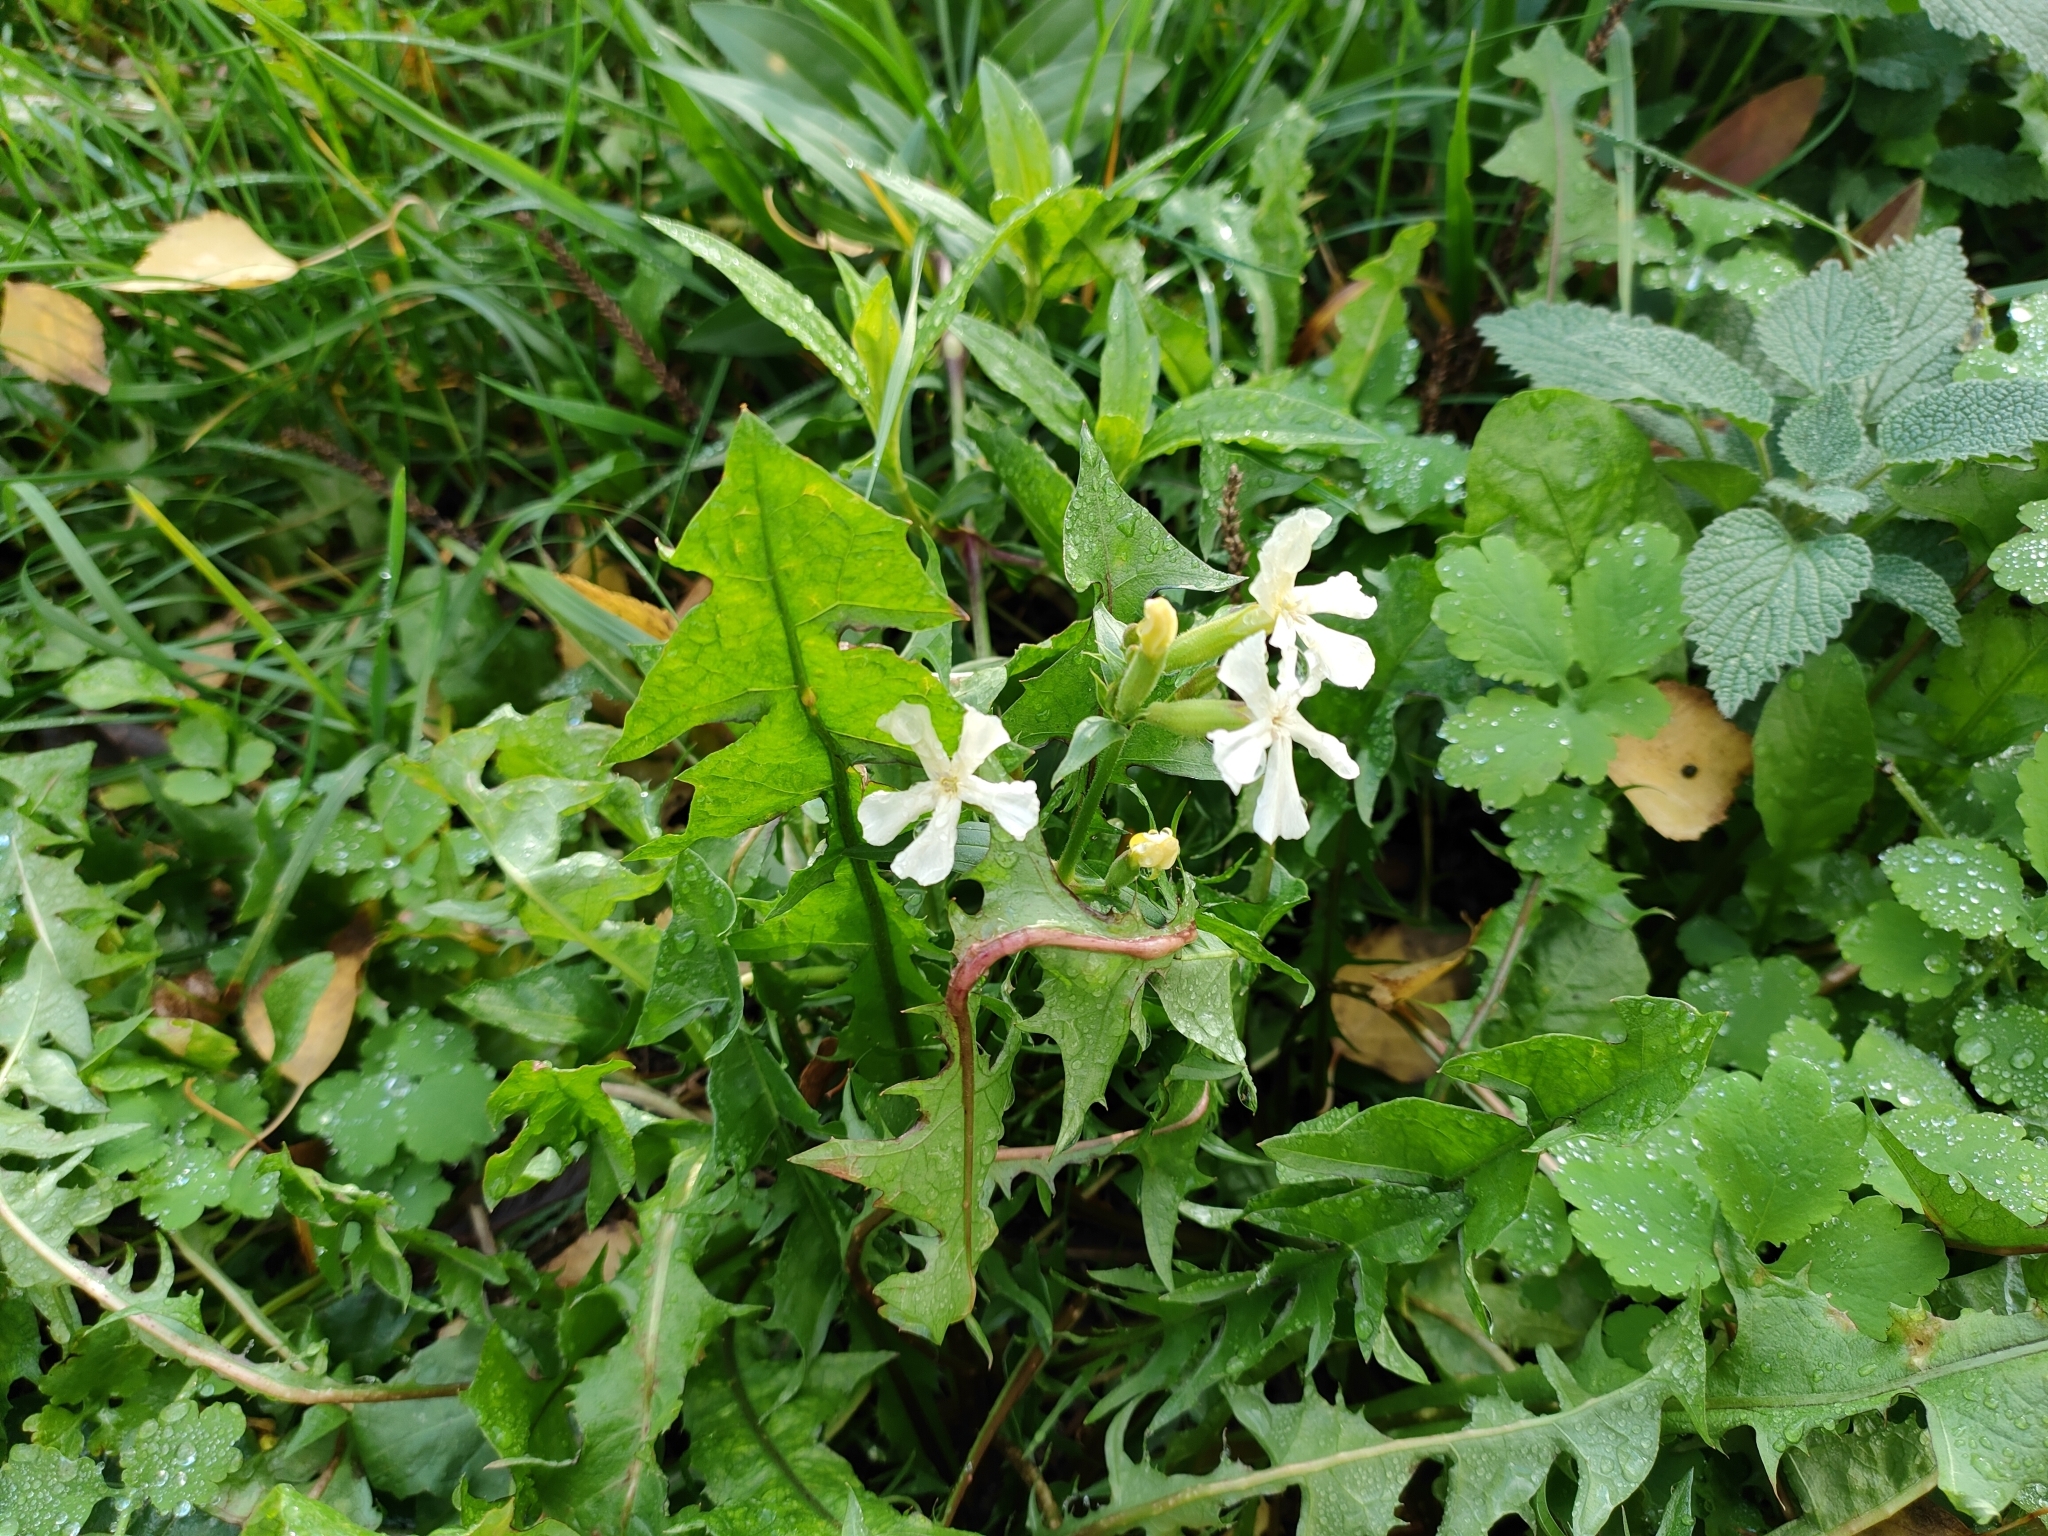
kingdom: Plantae
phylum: Tracheophyta
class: Magnoliopsida
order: Caryophyllales
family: Caryophyllaceae
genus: Saponaria
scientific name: Saponaria officinalis
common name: Soapwort
